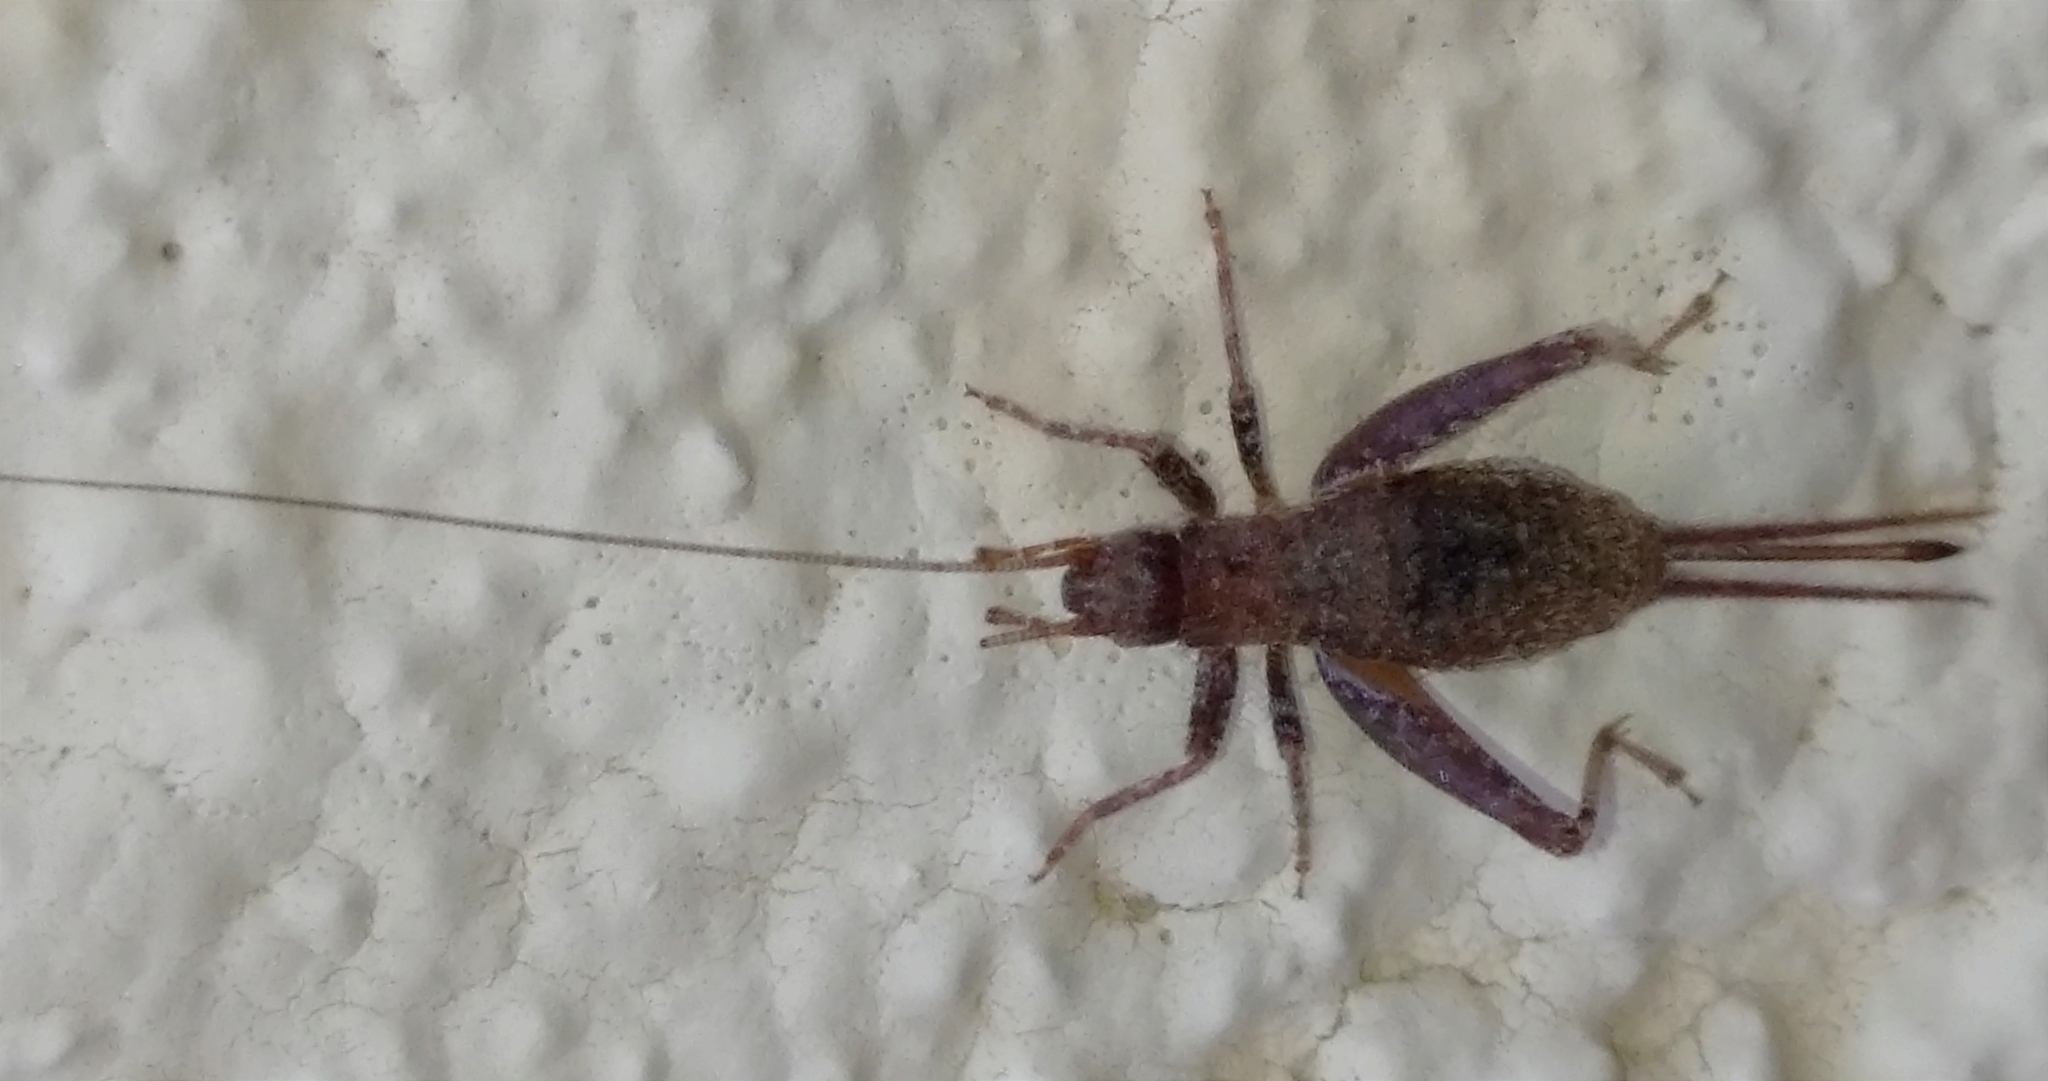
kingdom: Animalia
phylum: Arthropoda
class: Insecta
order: Orthoptera
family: Mogoplistidae
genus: Arachnocephalus
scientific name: Arachnocephalus vestitus
